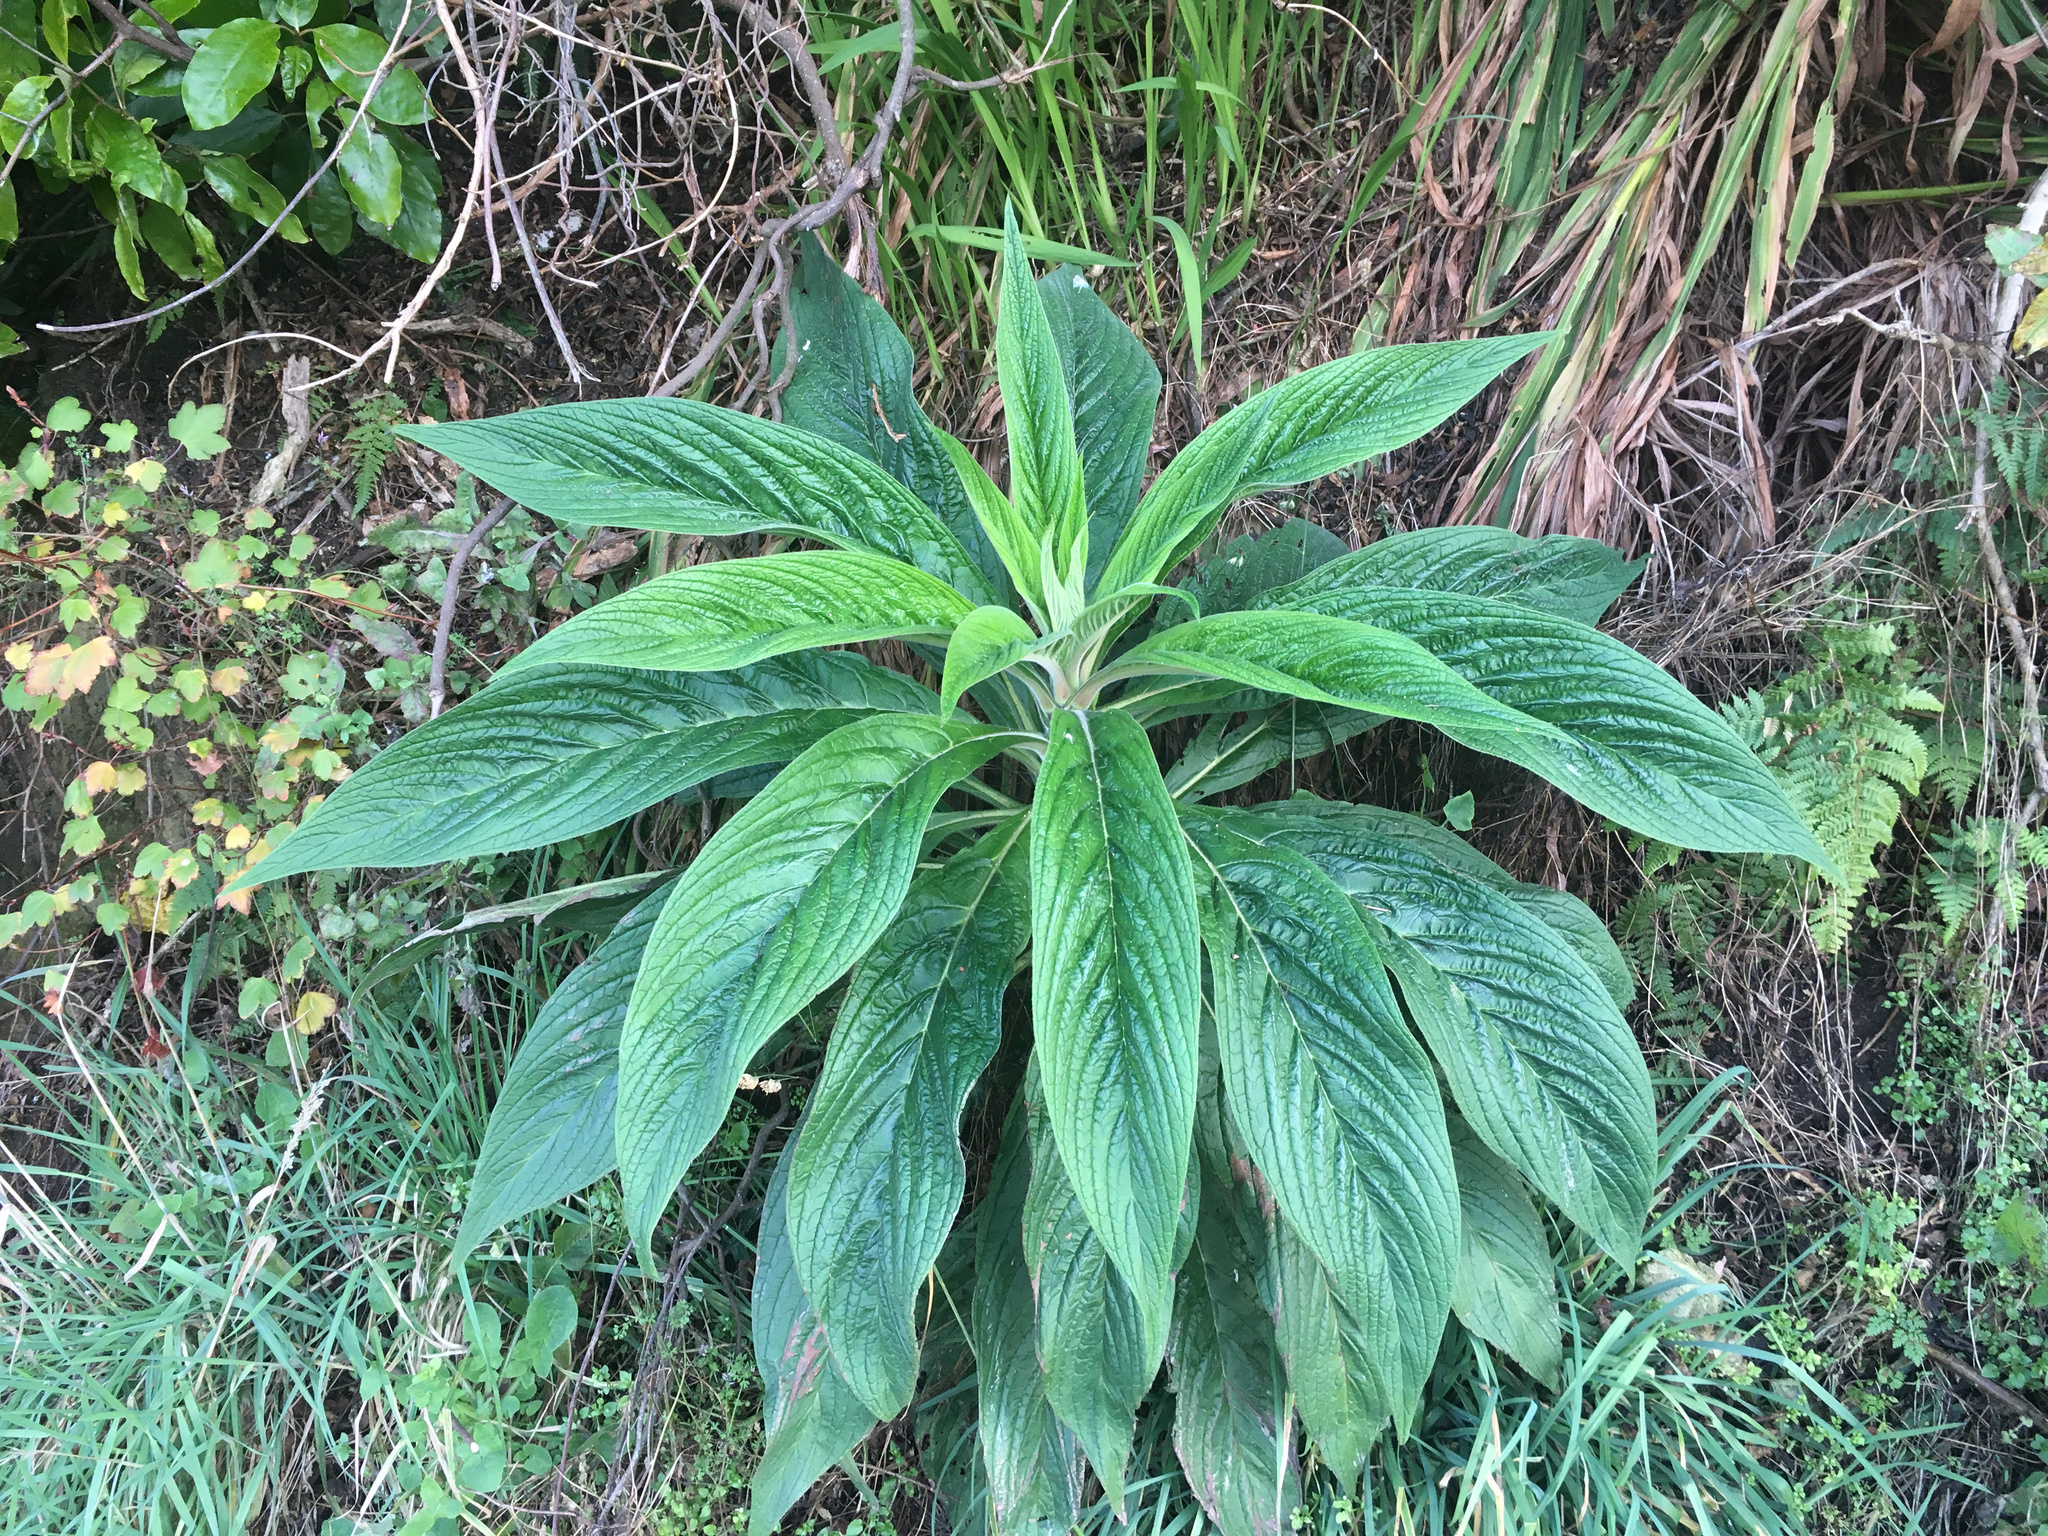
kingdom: Plantae
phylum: Tracheophyta
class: Magnoliopsida
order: Boraginales
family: Boraginaceae
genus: Echium
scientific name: Echium pininana
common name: Giant viper's-bugloss
